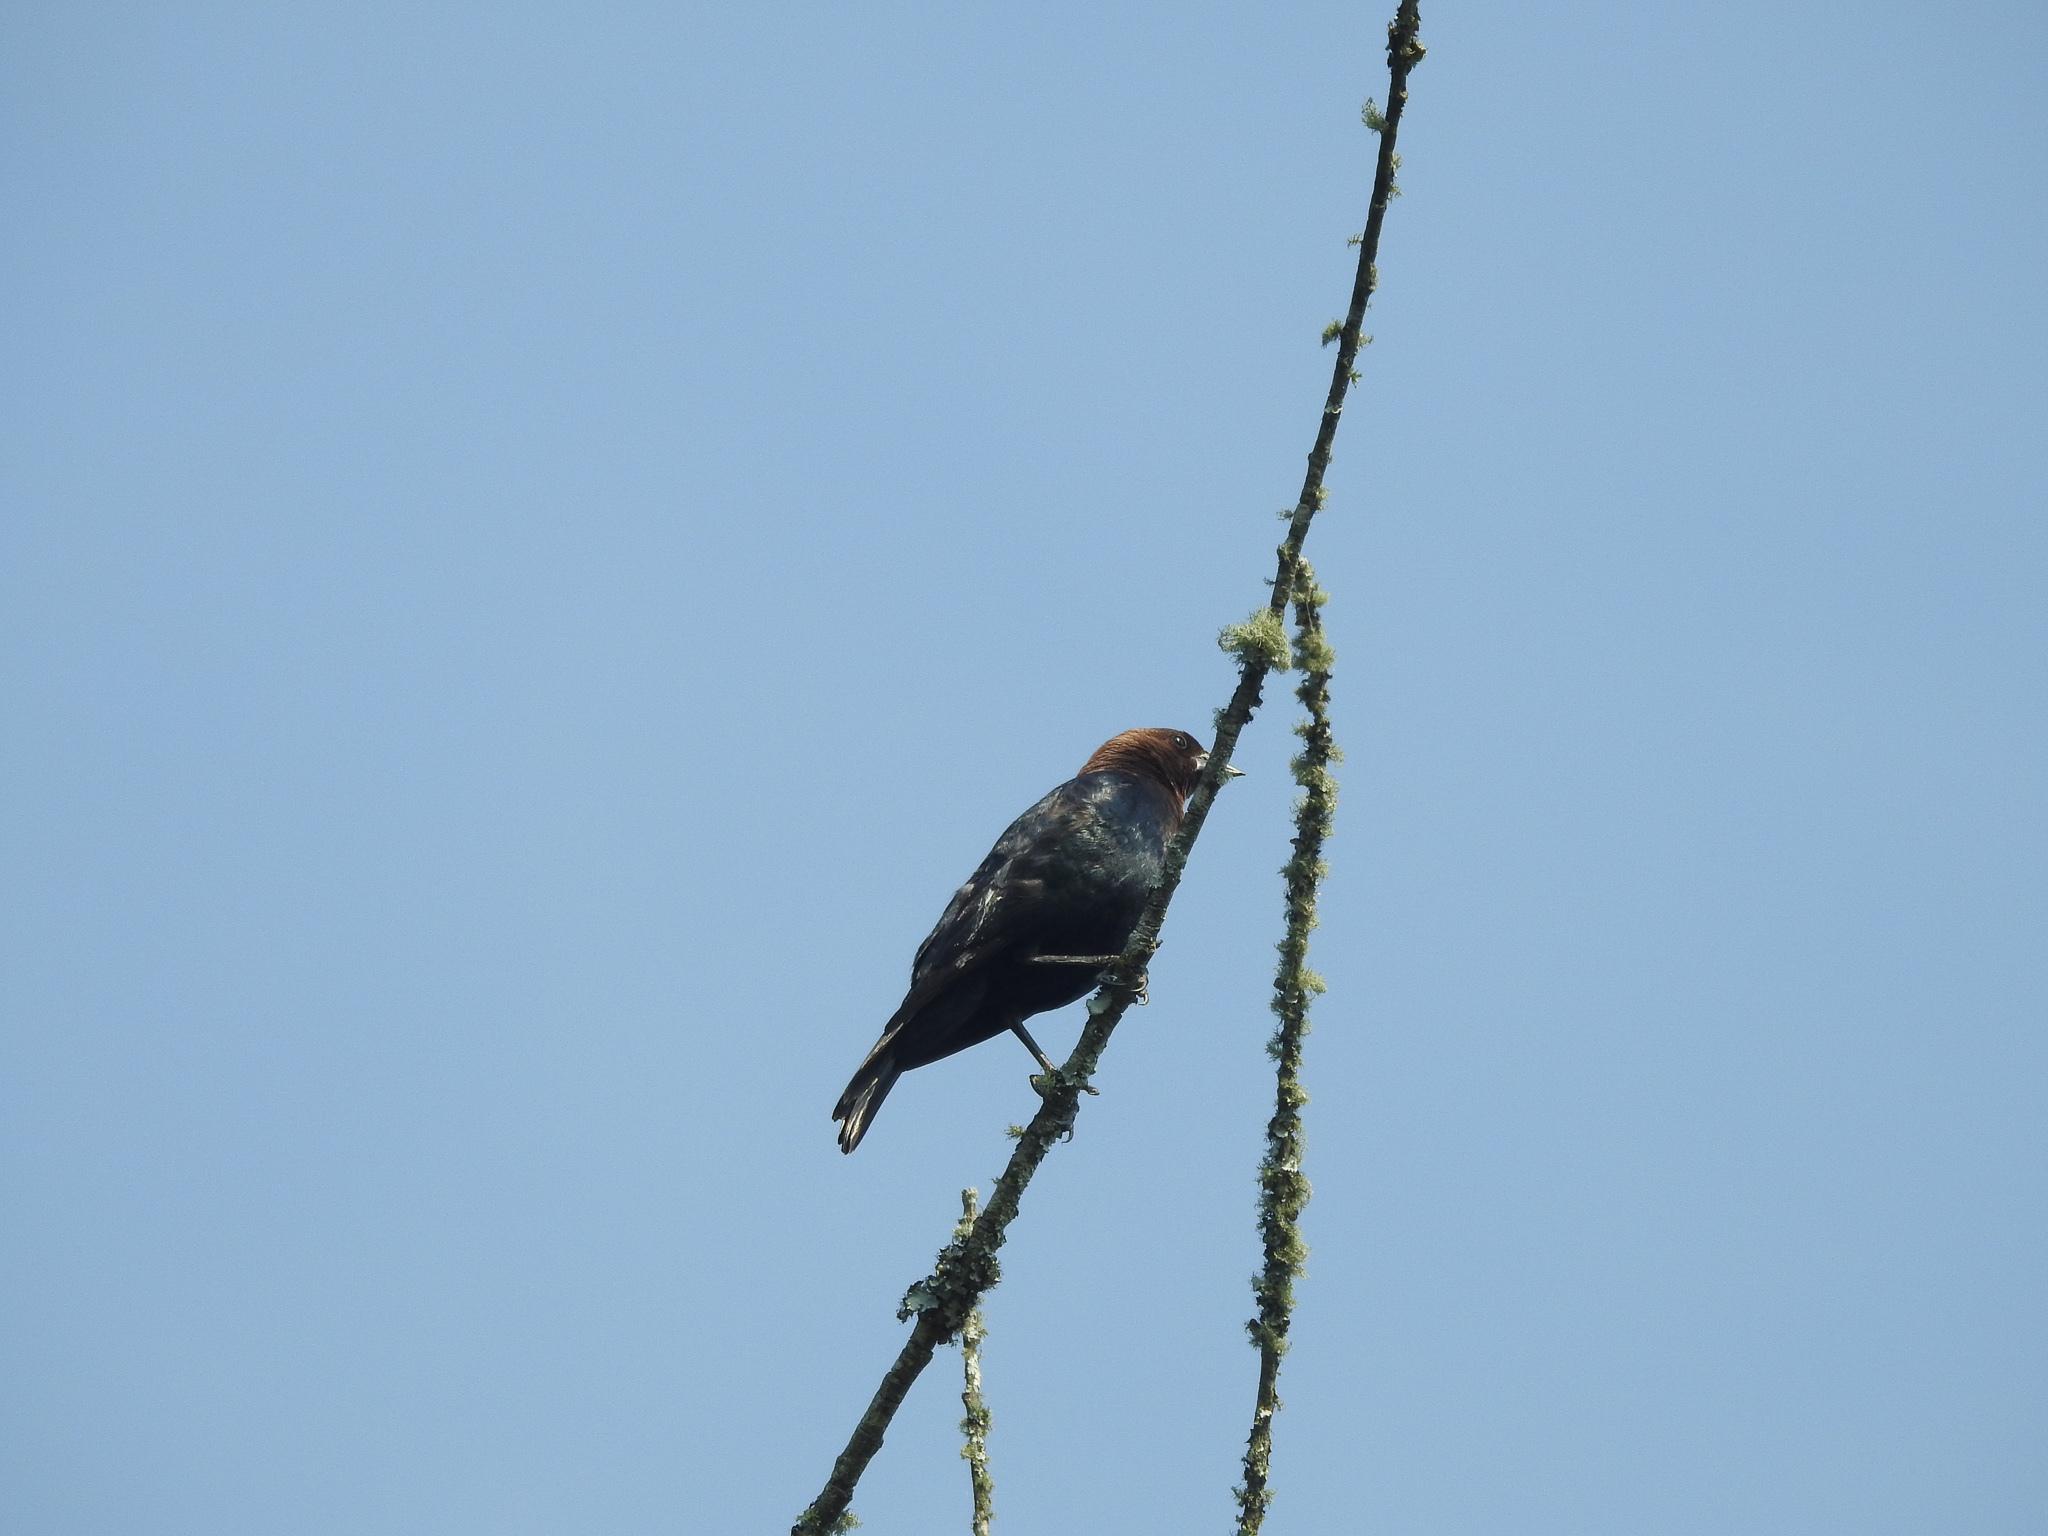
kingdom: Animalia
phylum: Chordata
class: Aves
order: Passeriformes
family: Icteridae
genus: Molothrus
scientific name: Molothrus ater
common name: Brown-headed cowbird
